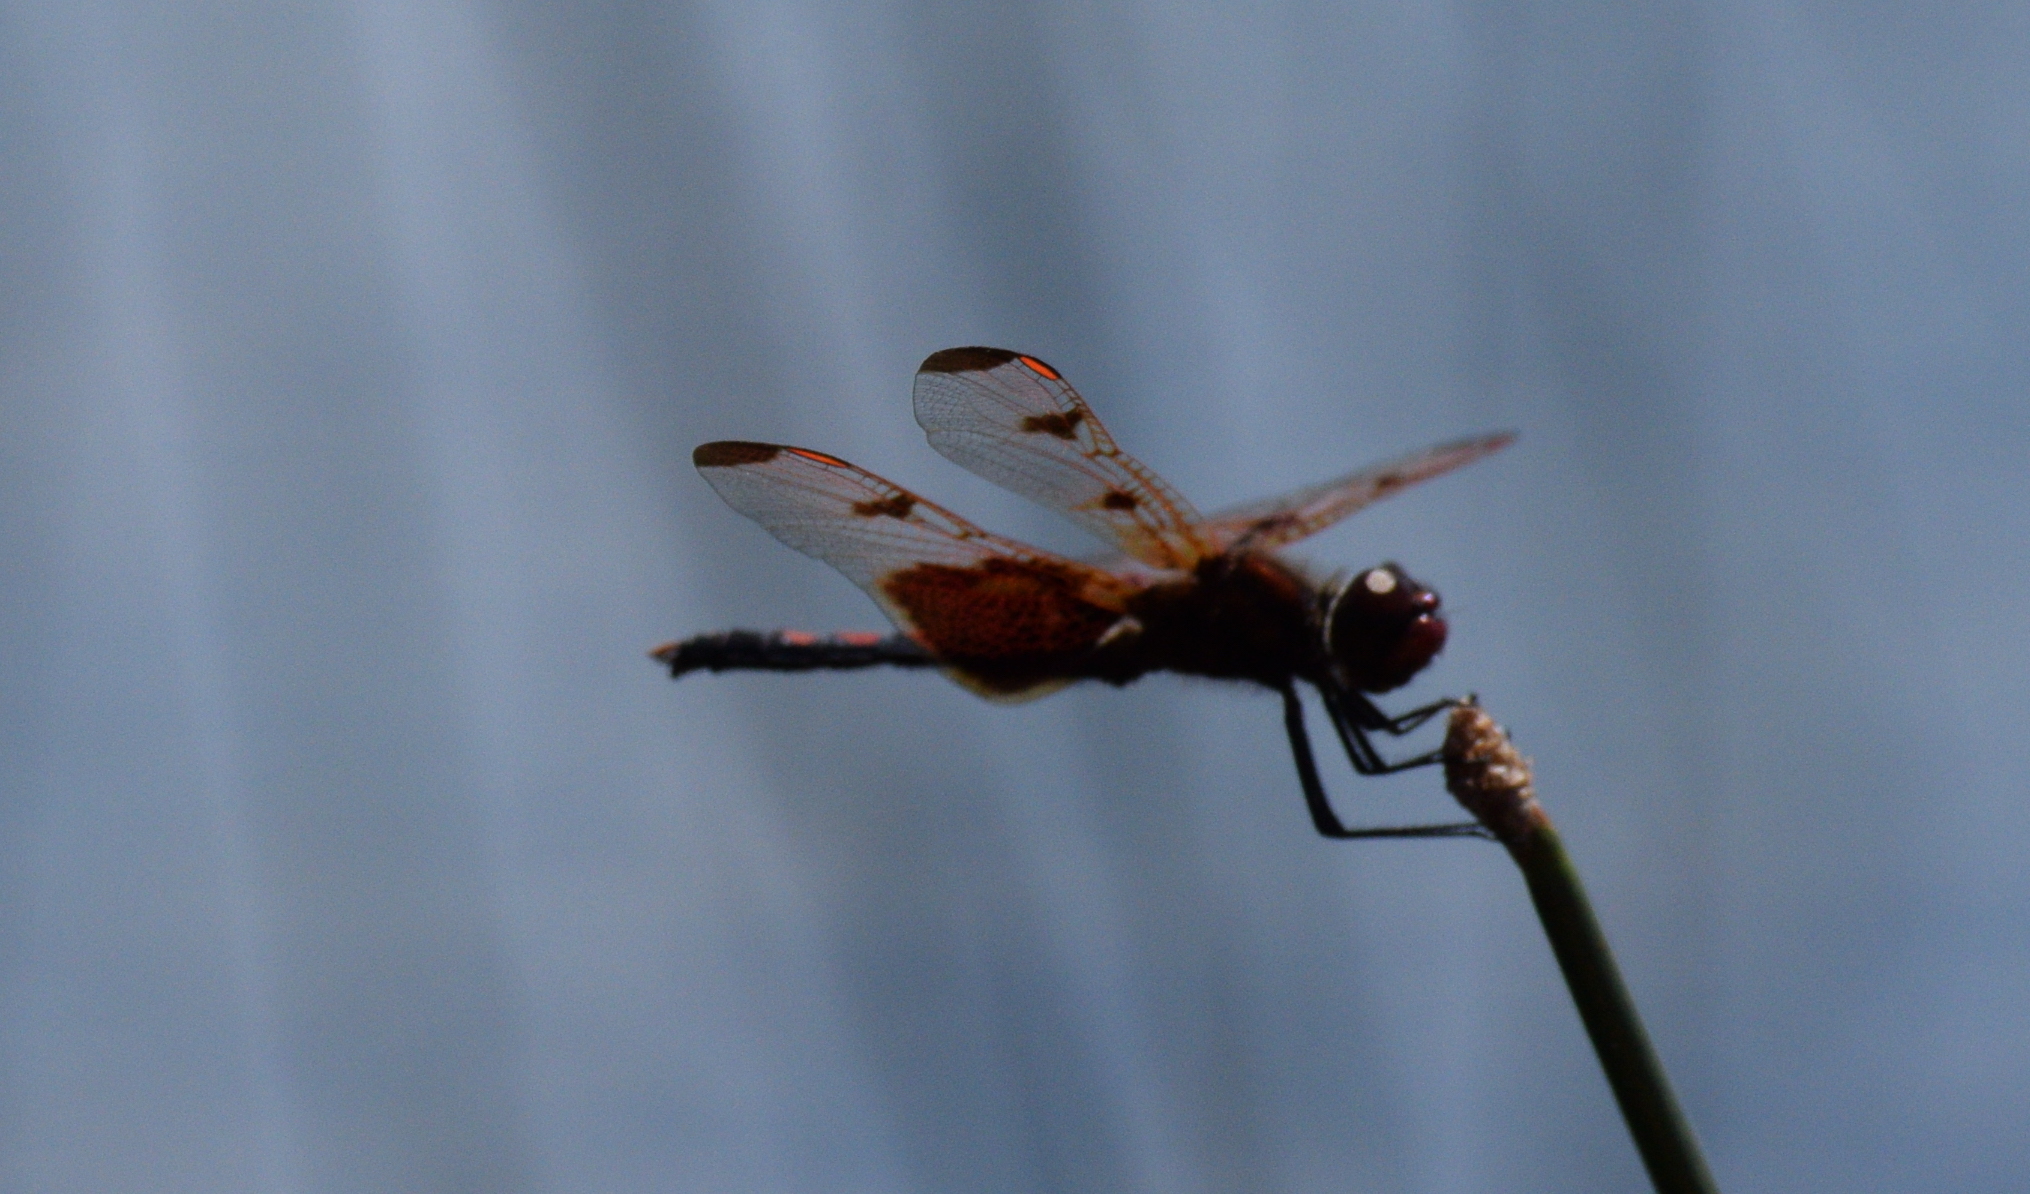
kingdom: Animalia
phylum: Arthropoda
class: Insecta
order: Odonata
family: Libellulidae
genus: Celithemis
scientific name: Celithemis elisa
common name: Calico pennant
